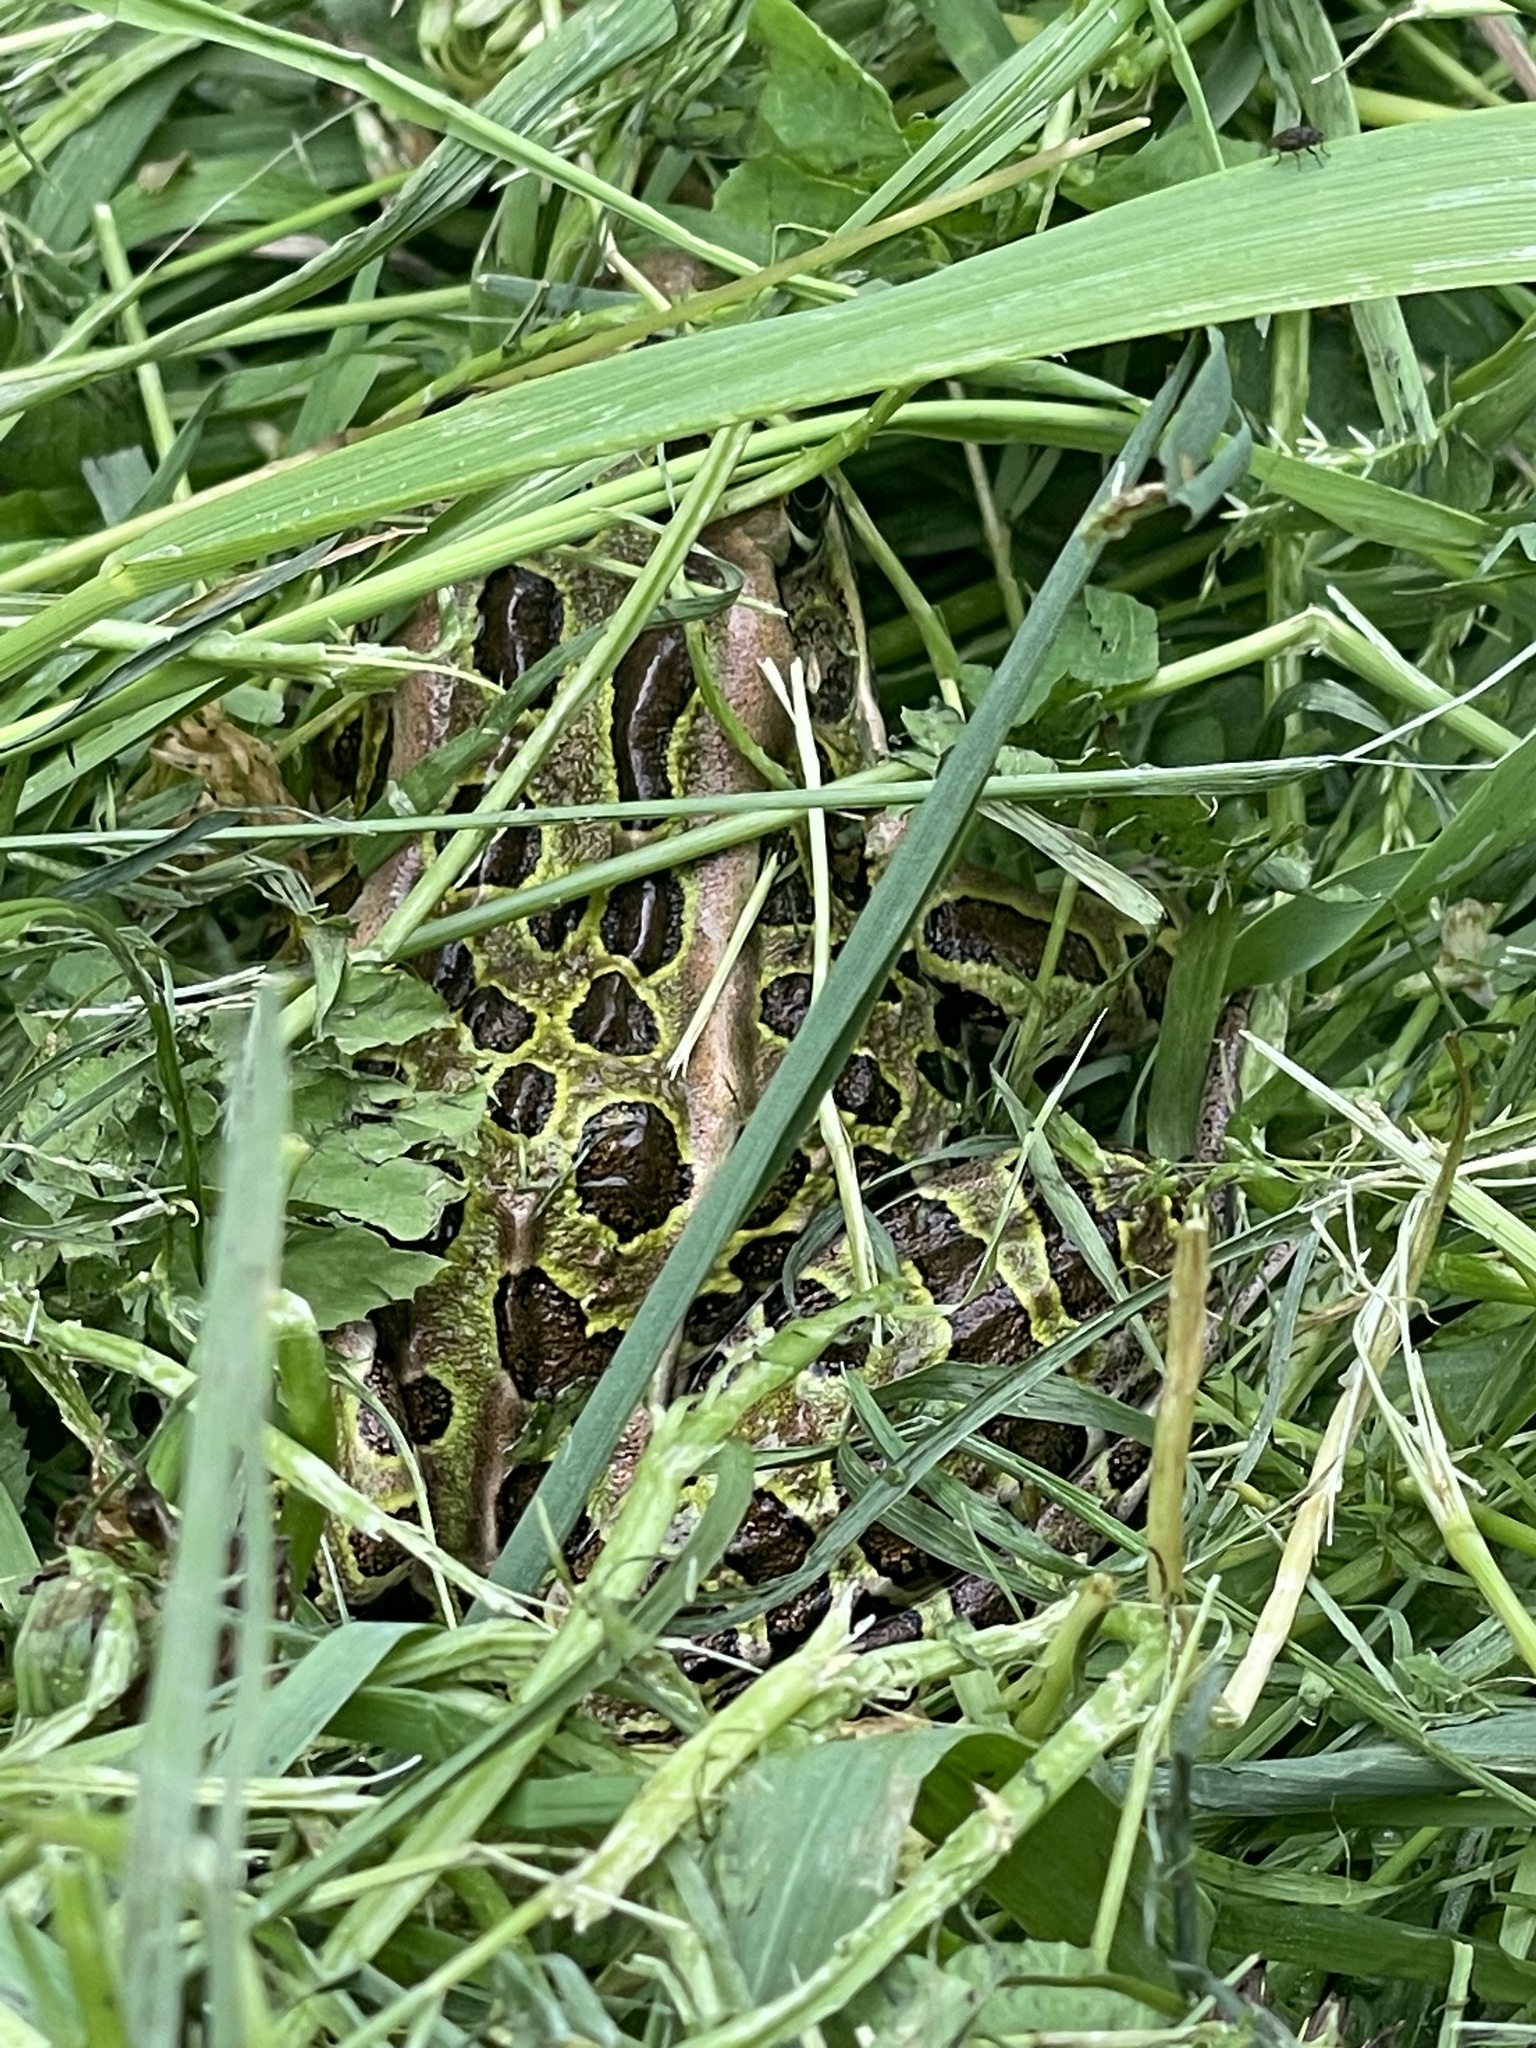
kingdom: Animalia
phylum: Chordata
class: Amphibia
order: Anura
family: Ranidae
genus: Lithobates
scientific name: Lithobates pipiens
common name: Northern leopard frog
